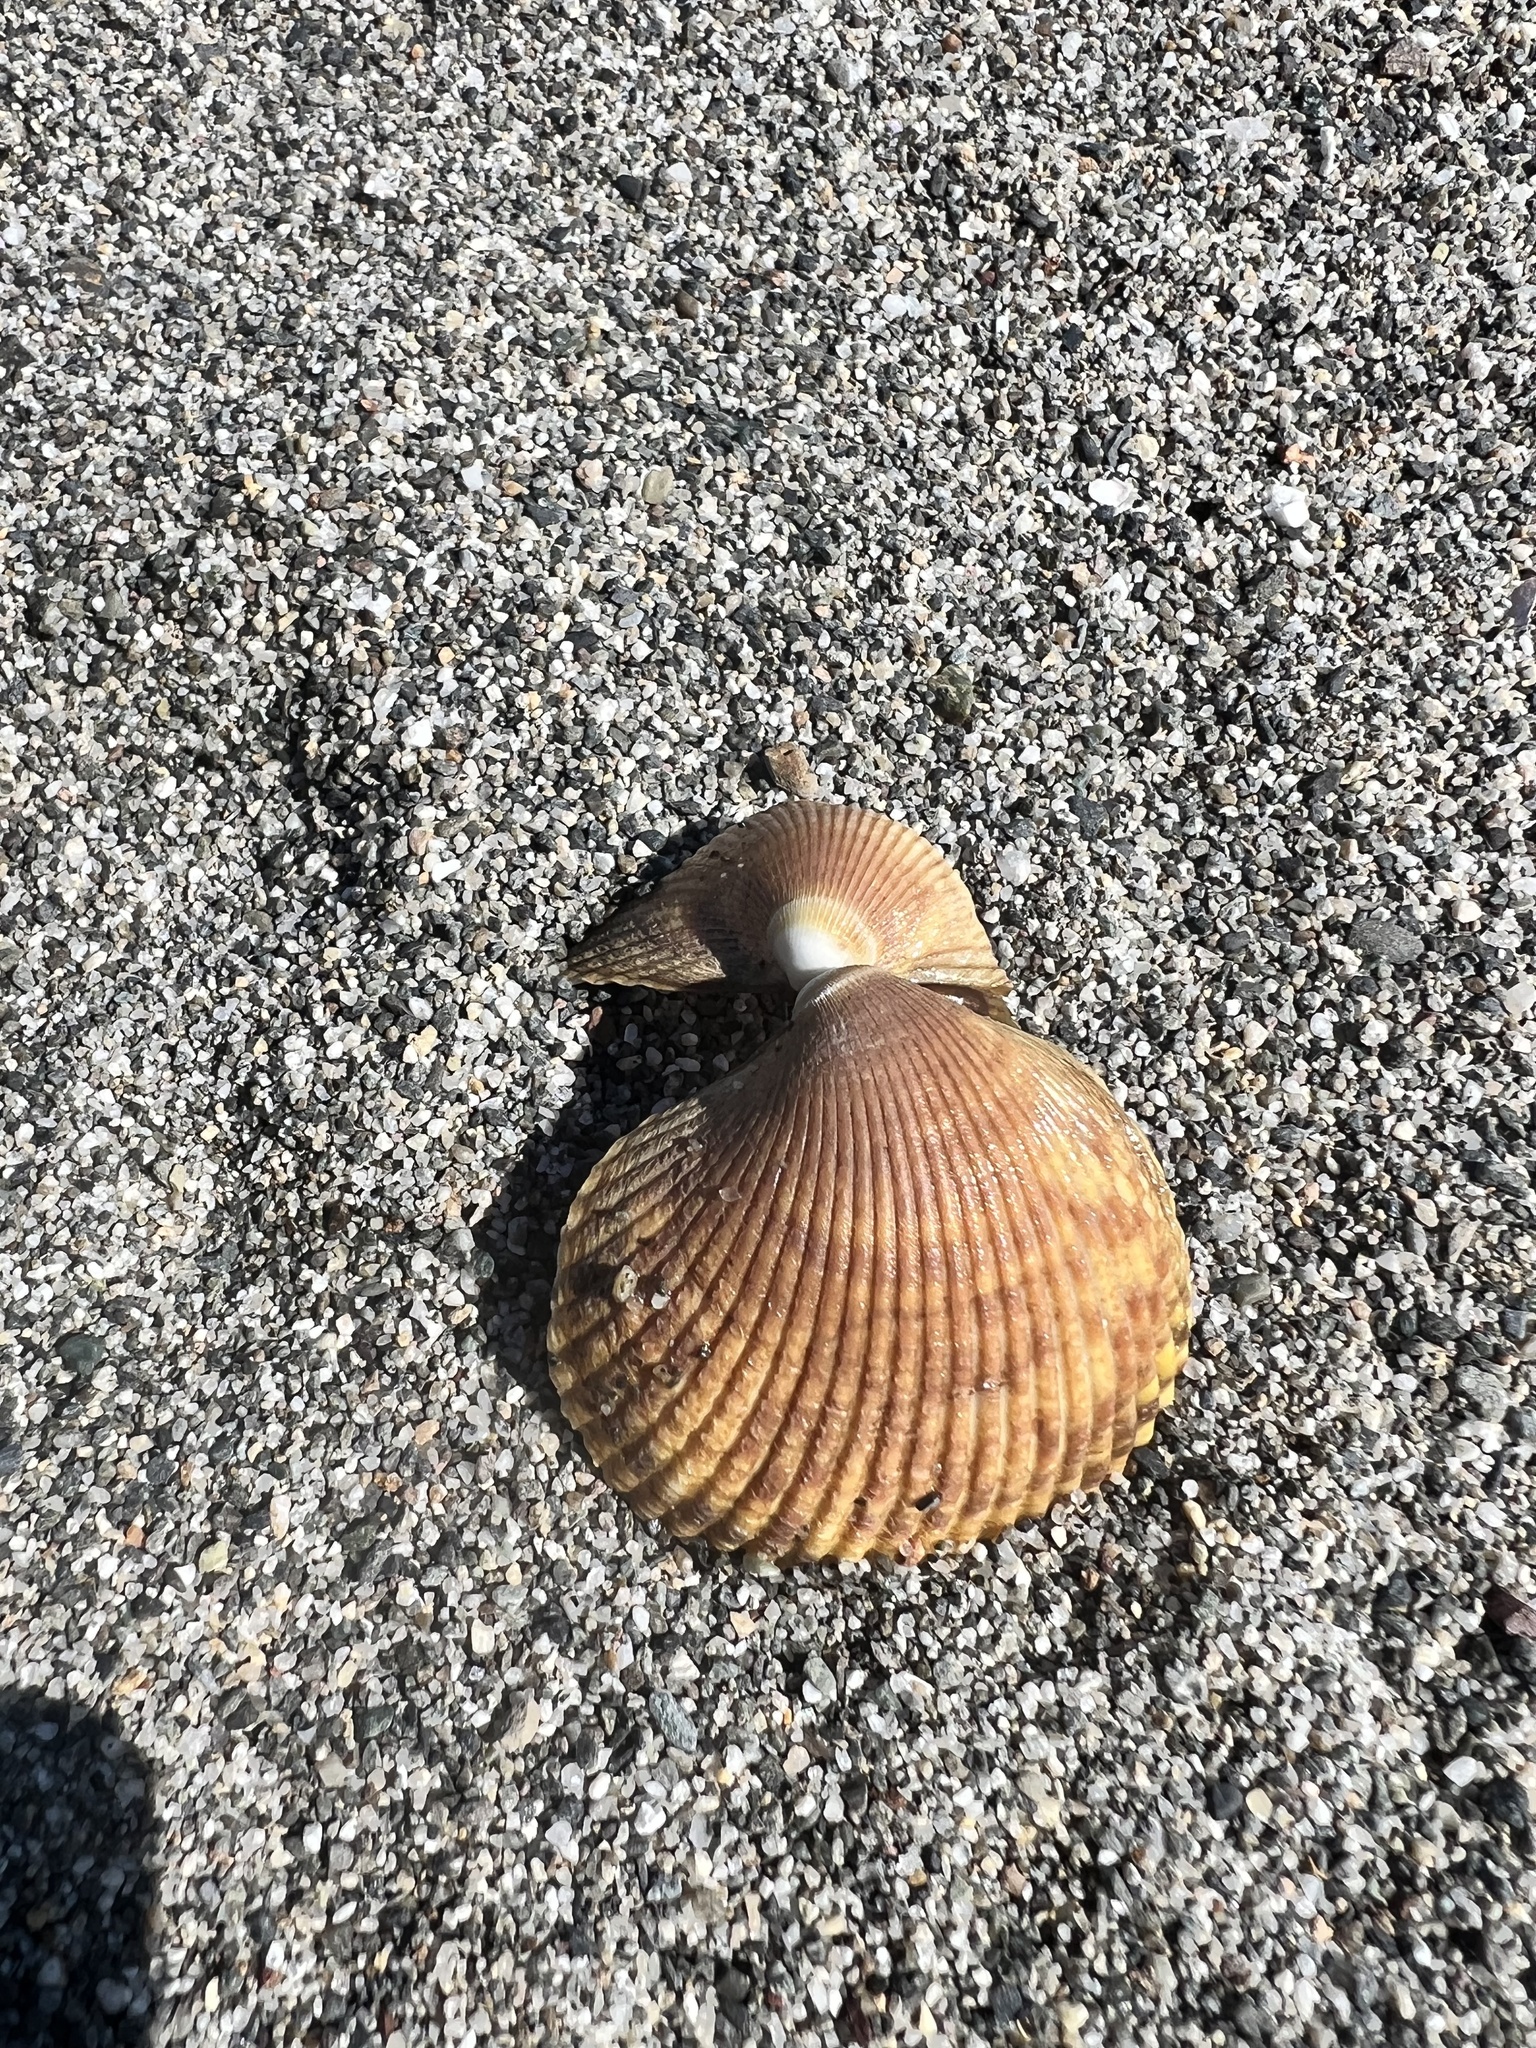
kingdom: Animalia
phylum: Mollusca
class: Bivalvia
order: Cardiida
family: Cardiidae
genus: Clinocardium
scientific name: Clinocardium nuttallii
